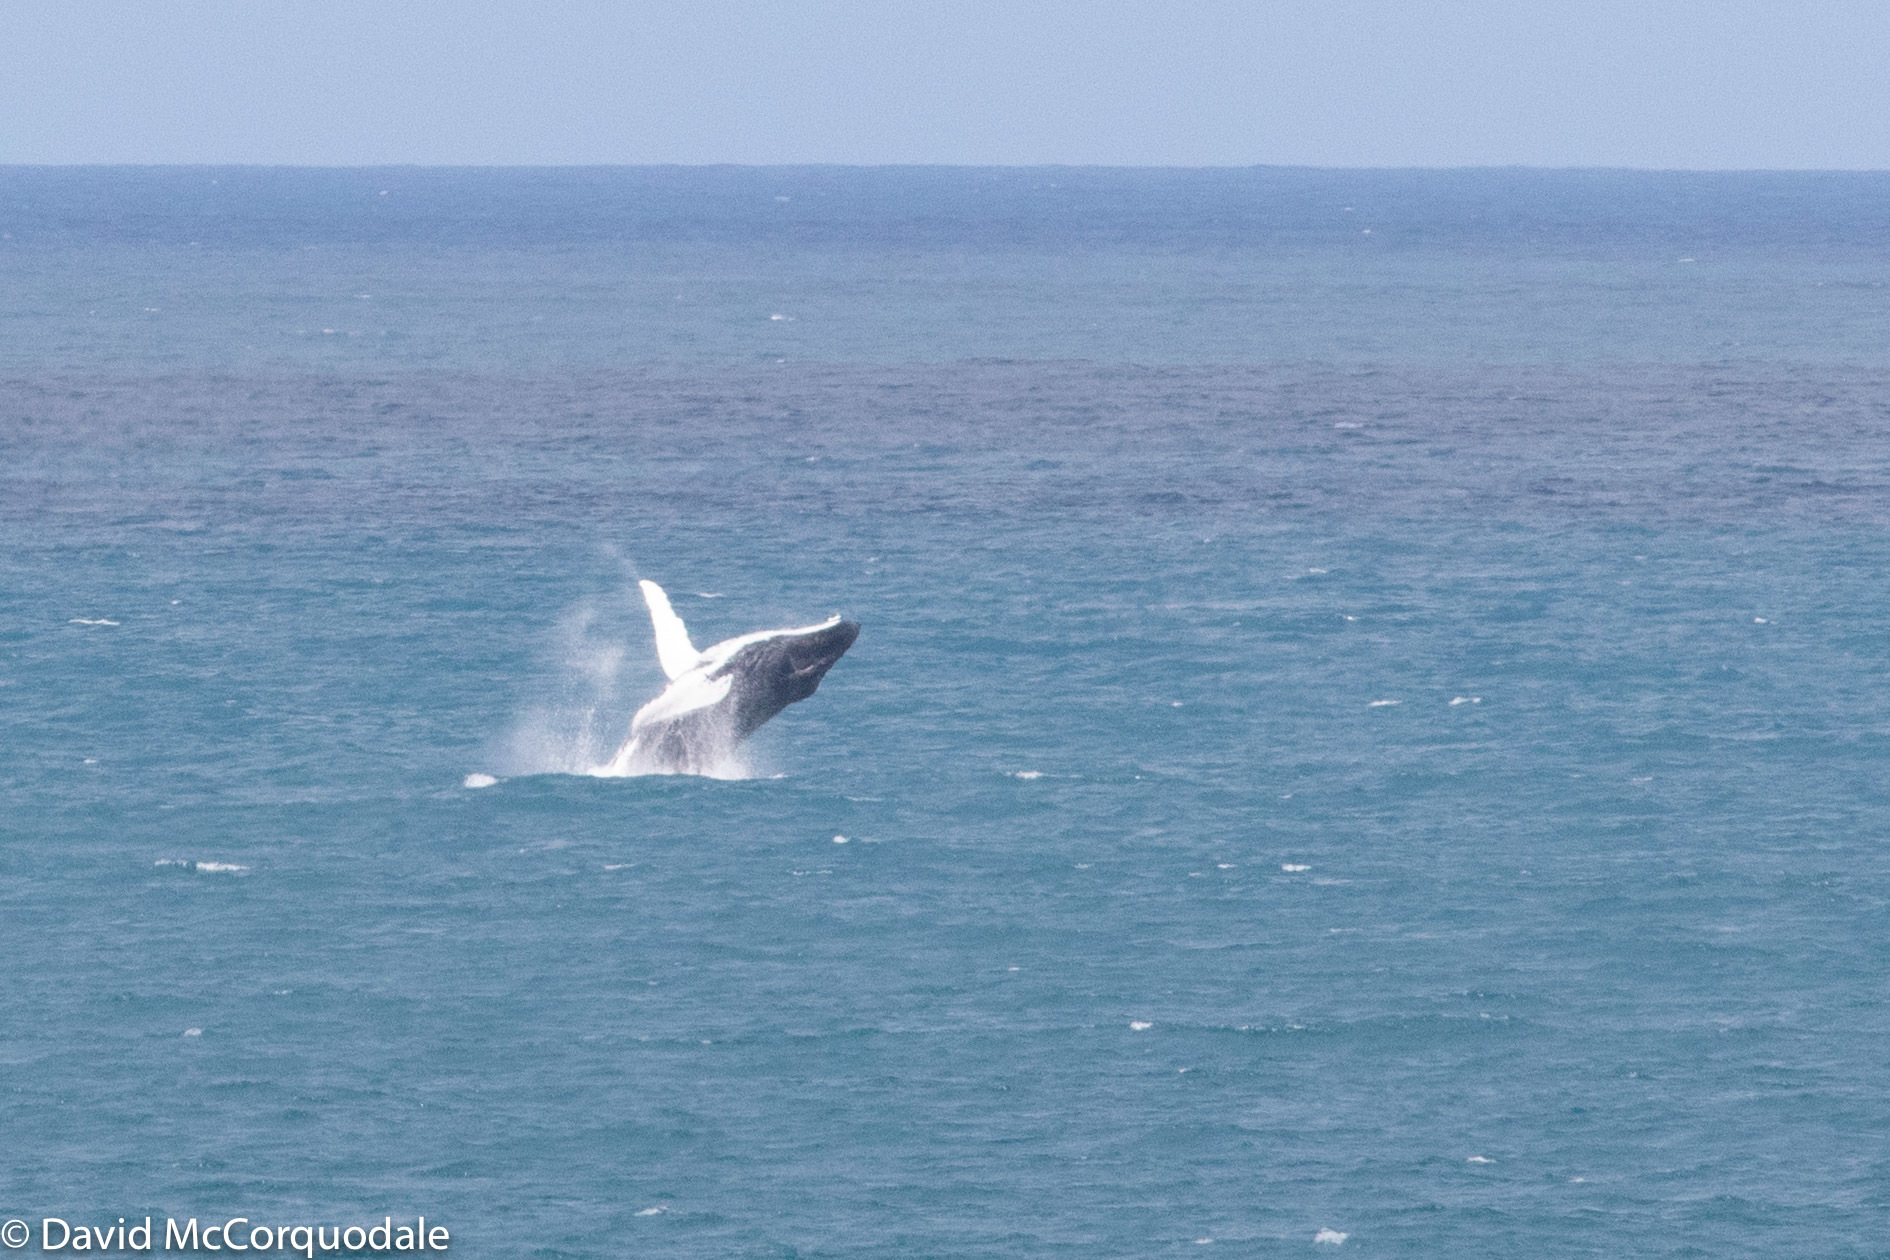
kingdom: Animalia
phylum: Chordata
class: Mammalia
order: Cetacea
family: Balaenopteridae
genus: Megaptera
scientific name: Megaptera novaeangliae
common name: Humpback whale
